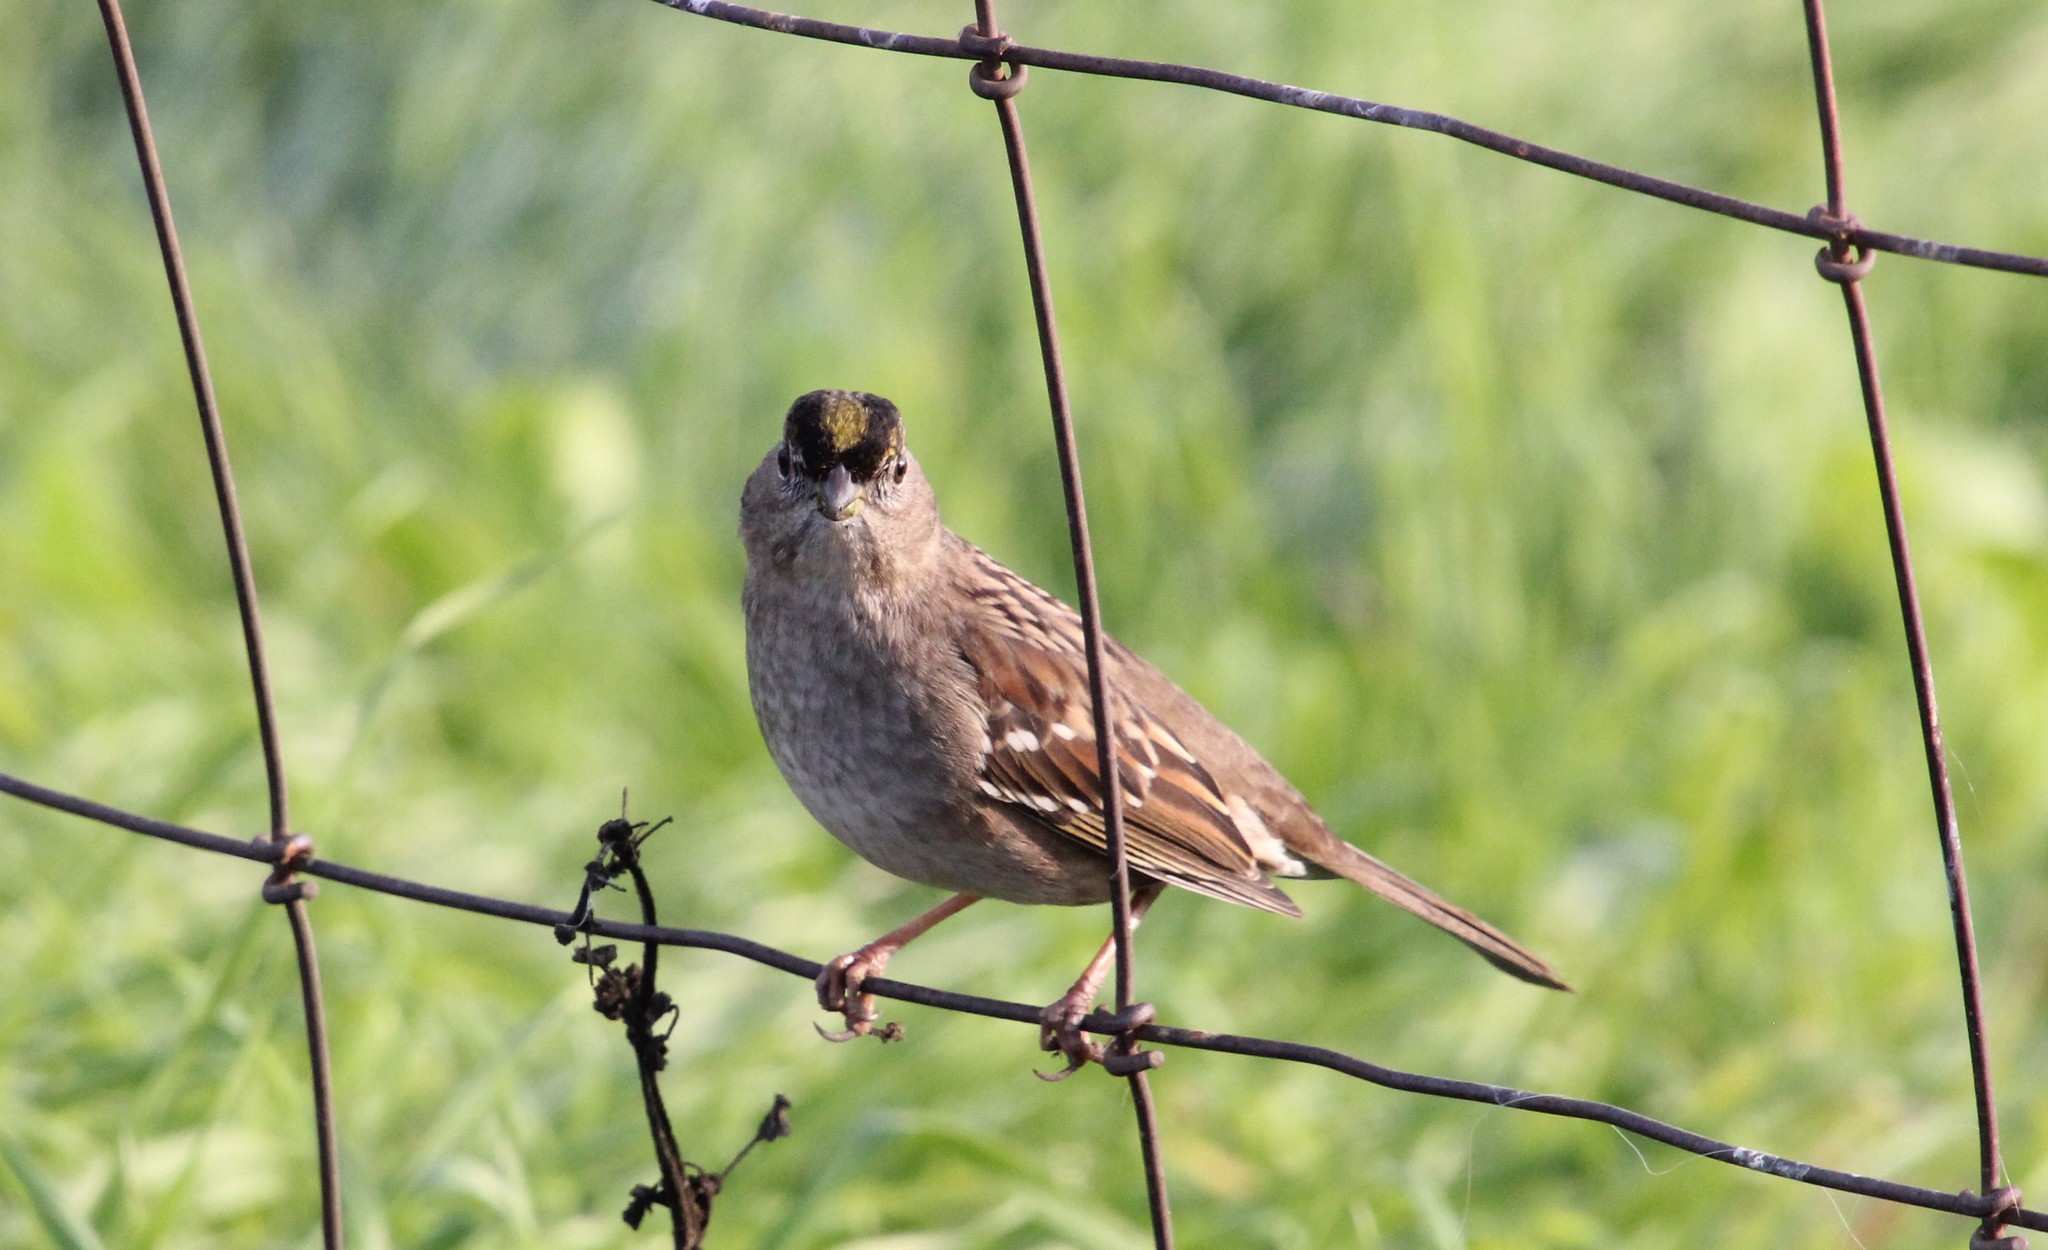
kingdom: Animalia
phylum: Chordata
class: Aves
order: Passeriformes
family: Passerellidae
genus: Zonotrichia
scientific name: Zonotrichia atricapilla
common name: Golden-crowned sparrow
